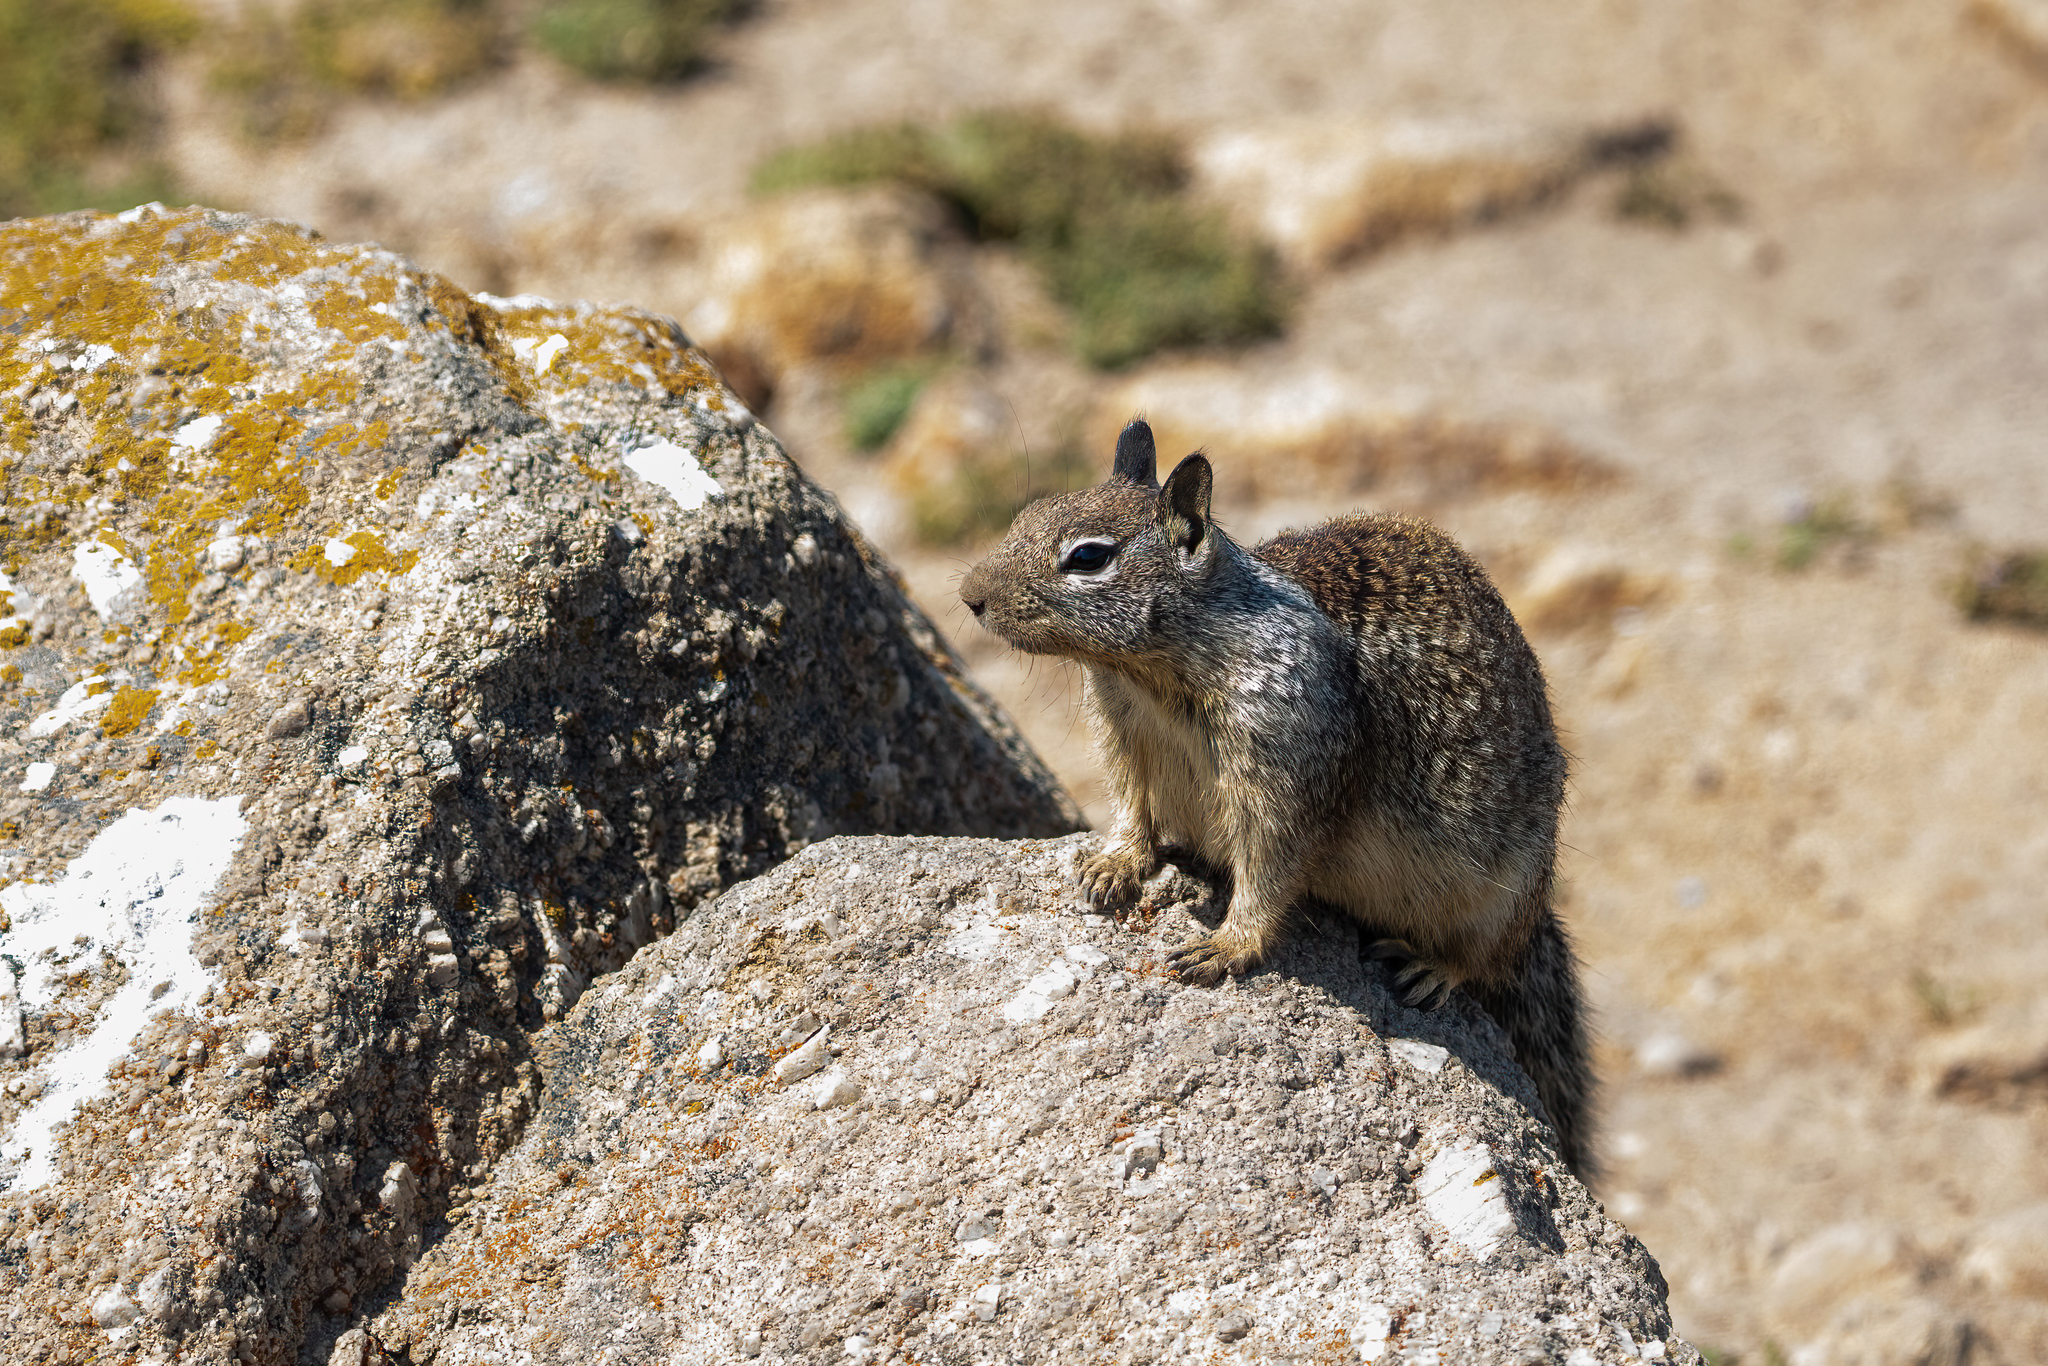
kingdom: Animalia
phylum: Chordata
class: Mammalia
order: Rodentia
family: Sciuridae
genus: Otospermophilus
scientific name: Otospermophilus beecheyi
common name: California ground squirrel
